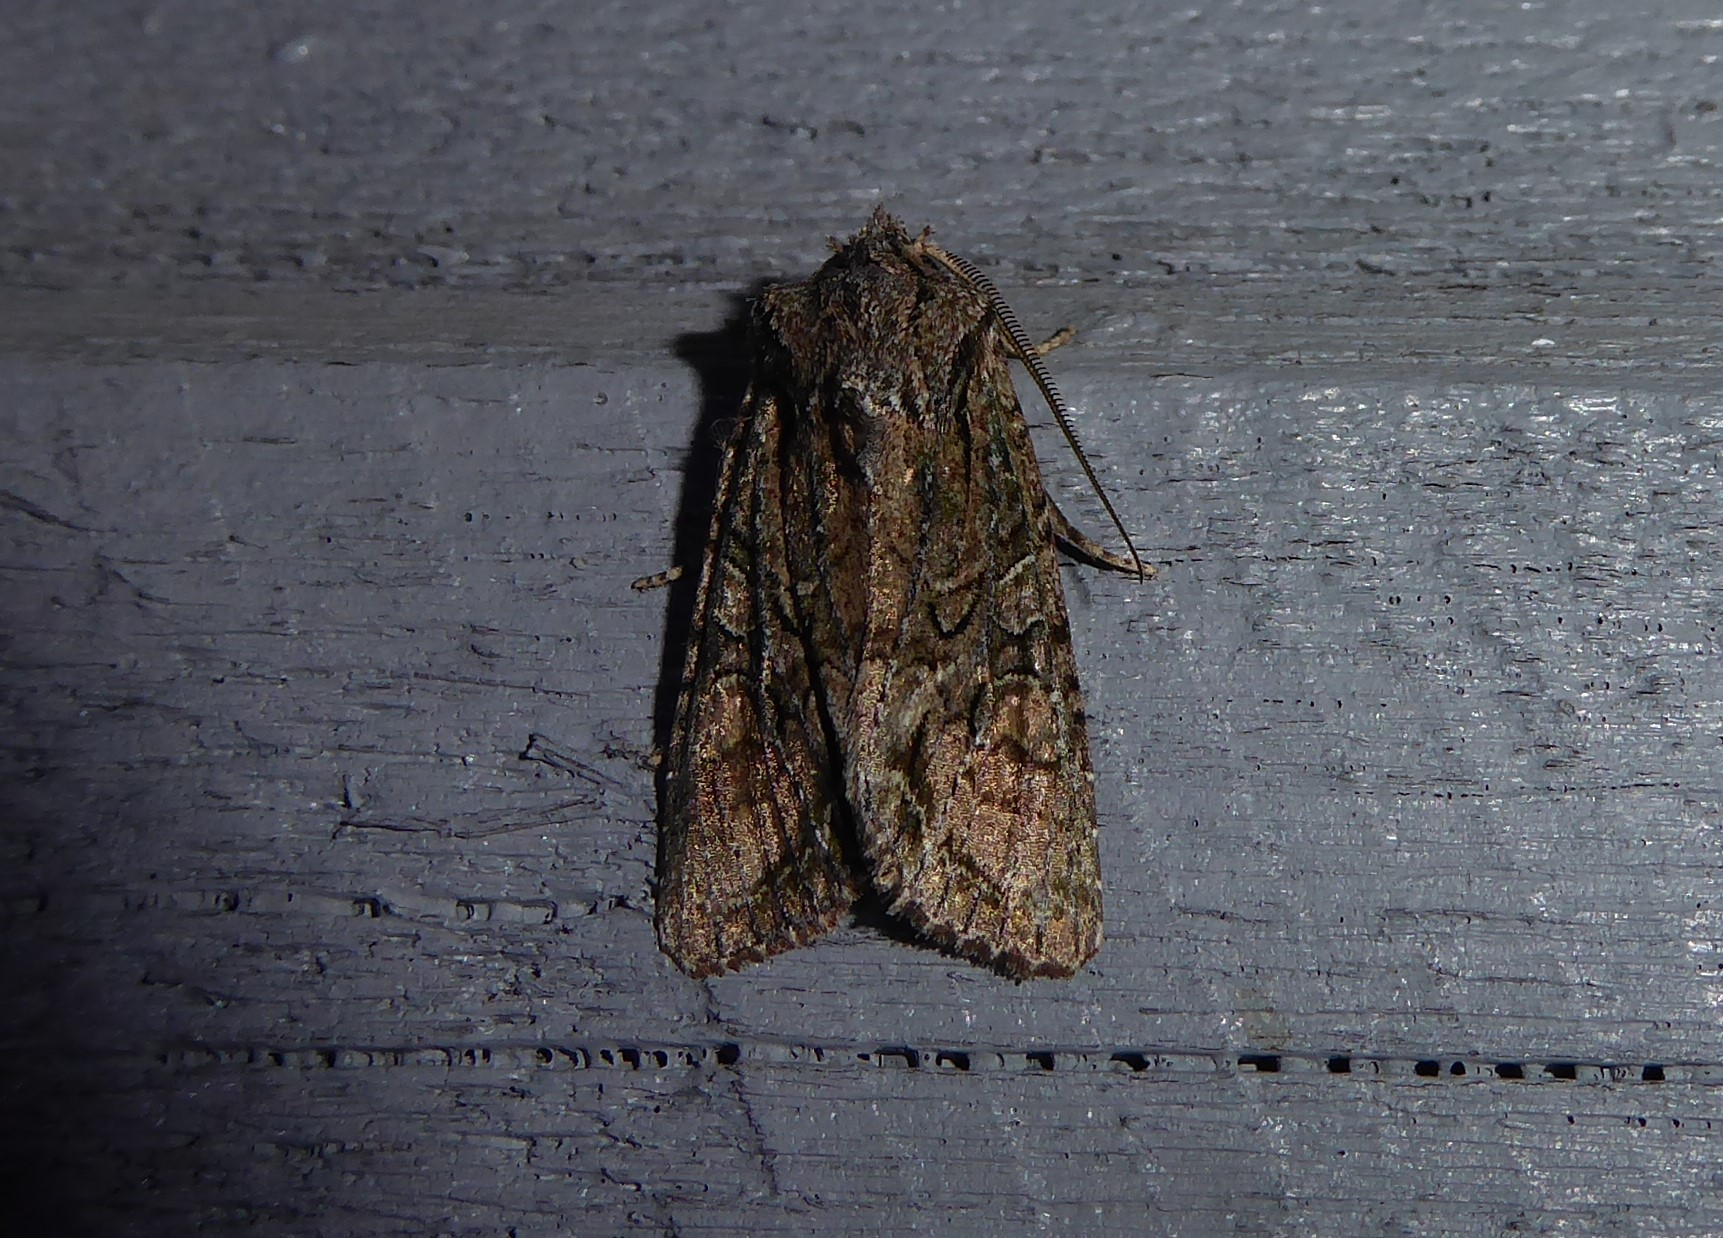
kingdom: Animalia
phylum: Arthropoda
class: Insecta
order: Lepidoptera
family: Noctuidae
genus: Ichneutica
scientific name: Ichneutica mutans
